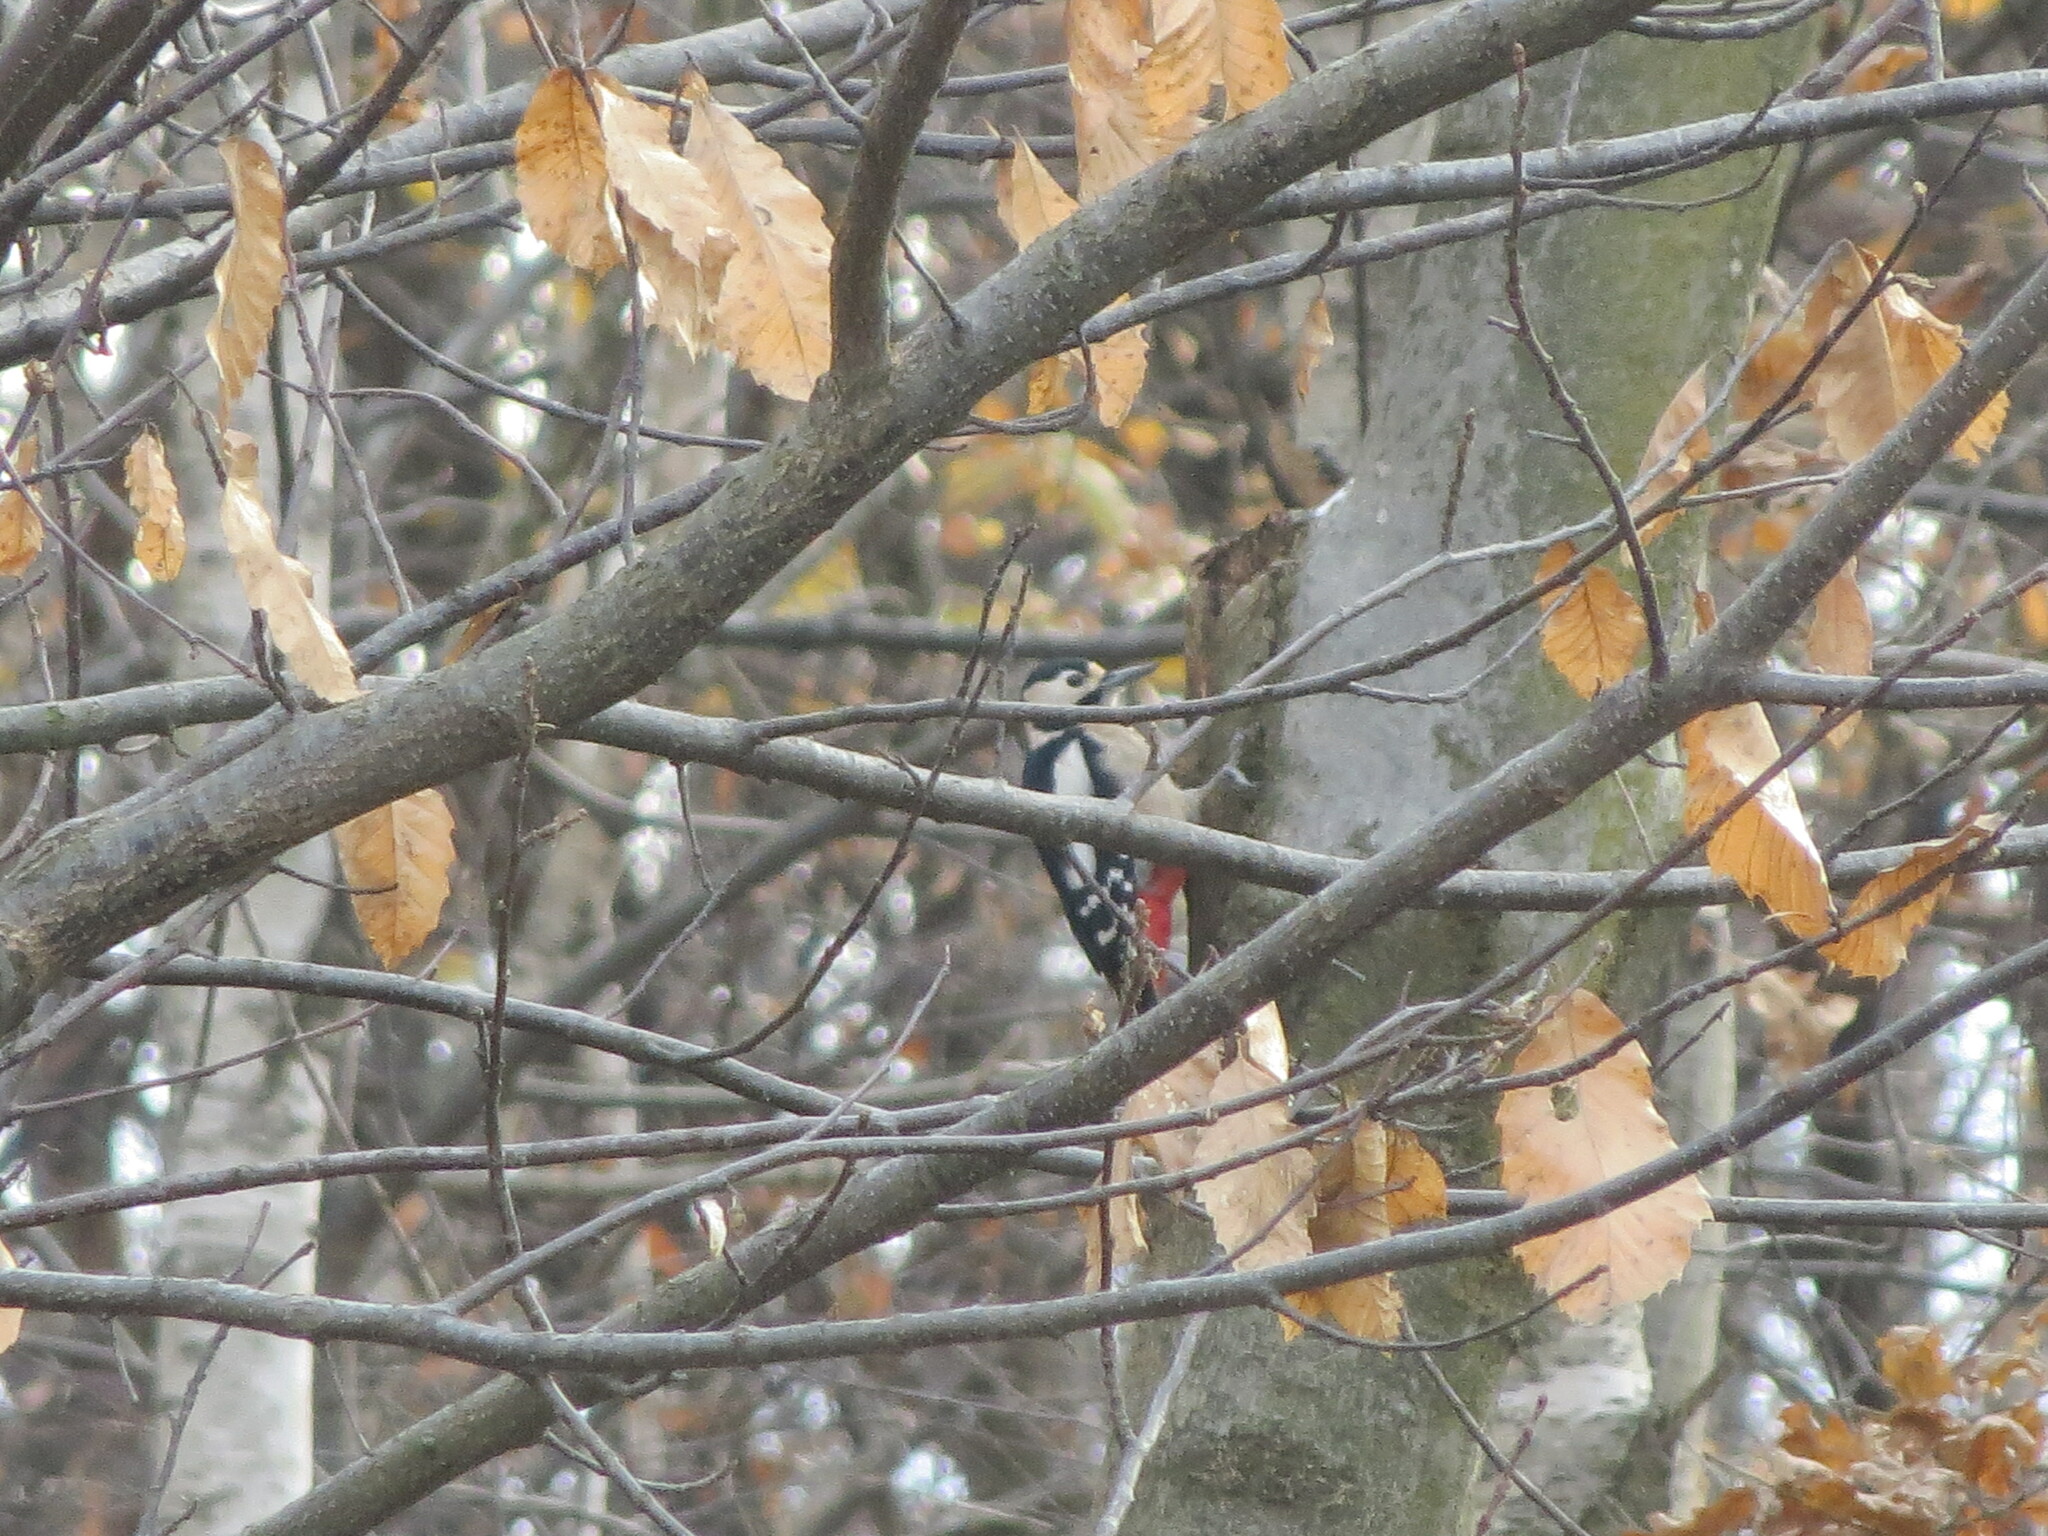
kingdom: Animalia
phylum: Chordata
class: Aves
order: Piciformes
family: Picidae
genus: Dendrocopos
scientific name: Dendrocopos major
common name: Great spotted woodpecker
